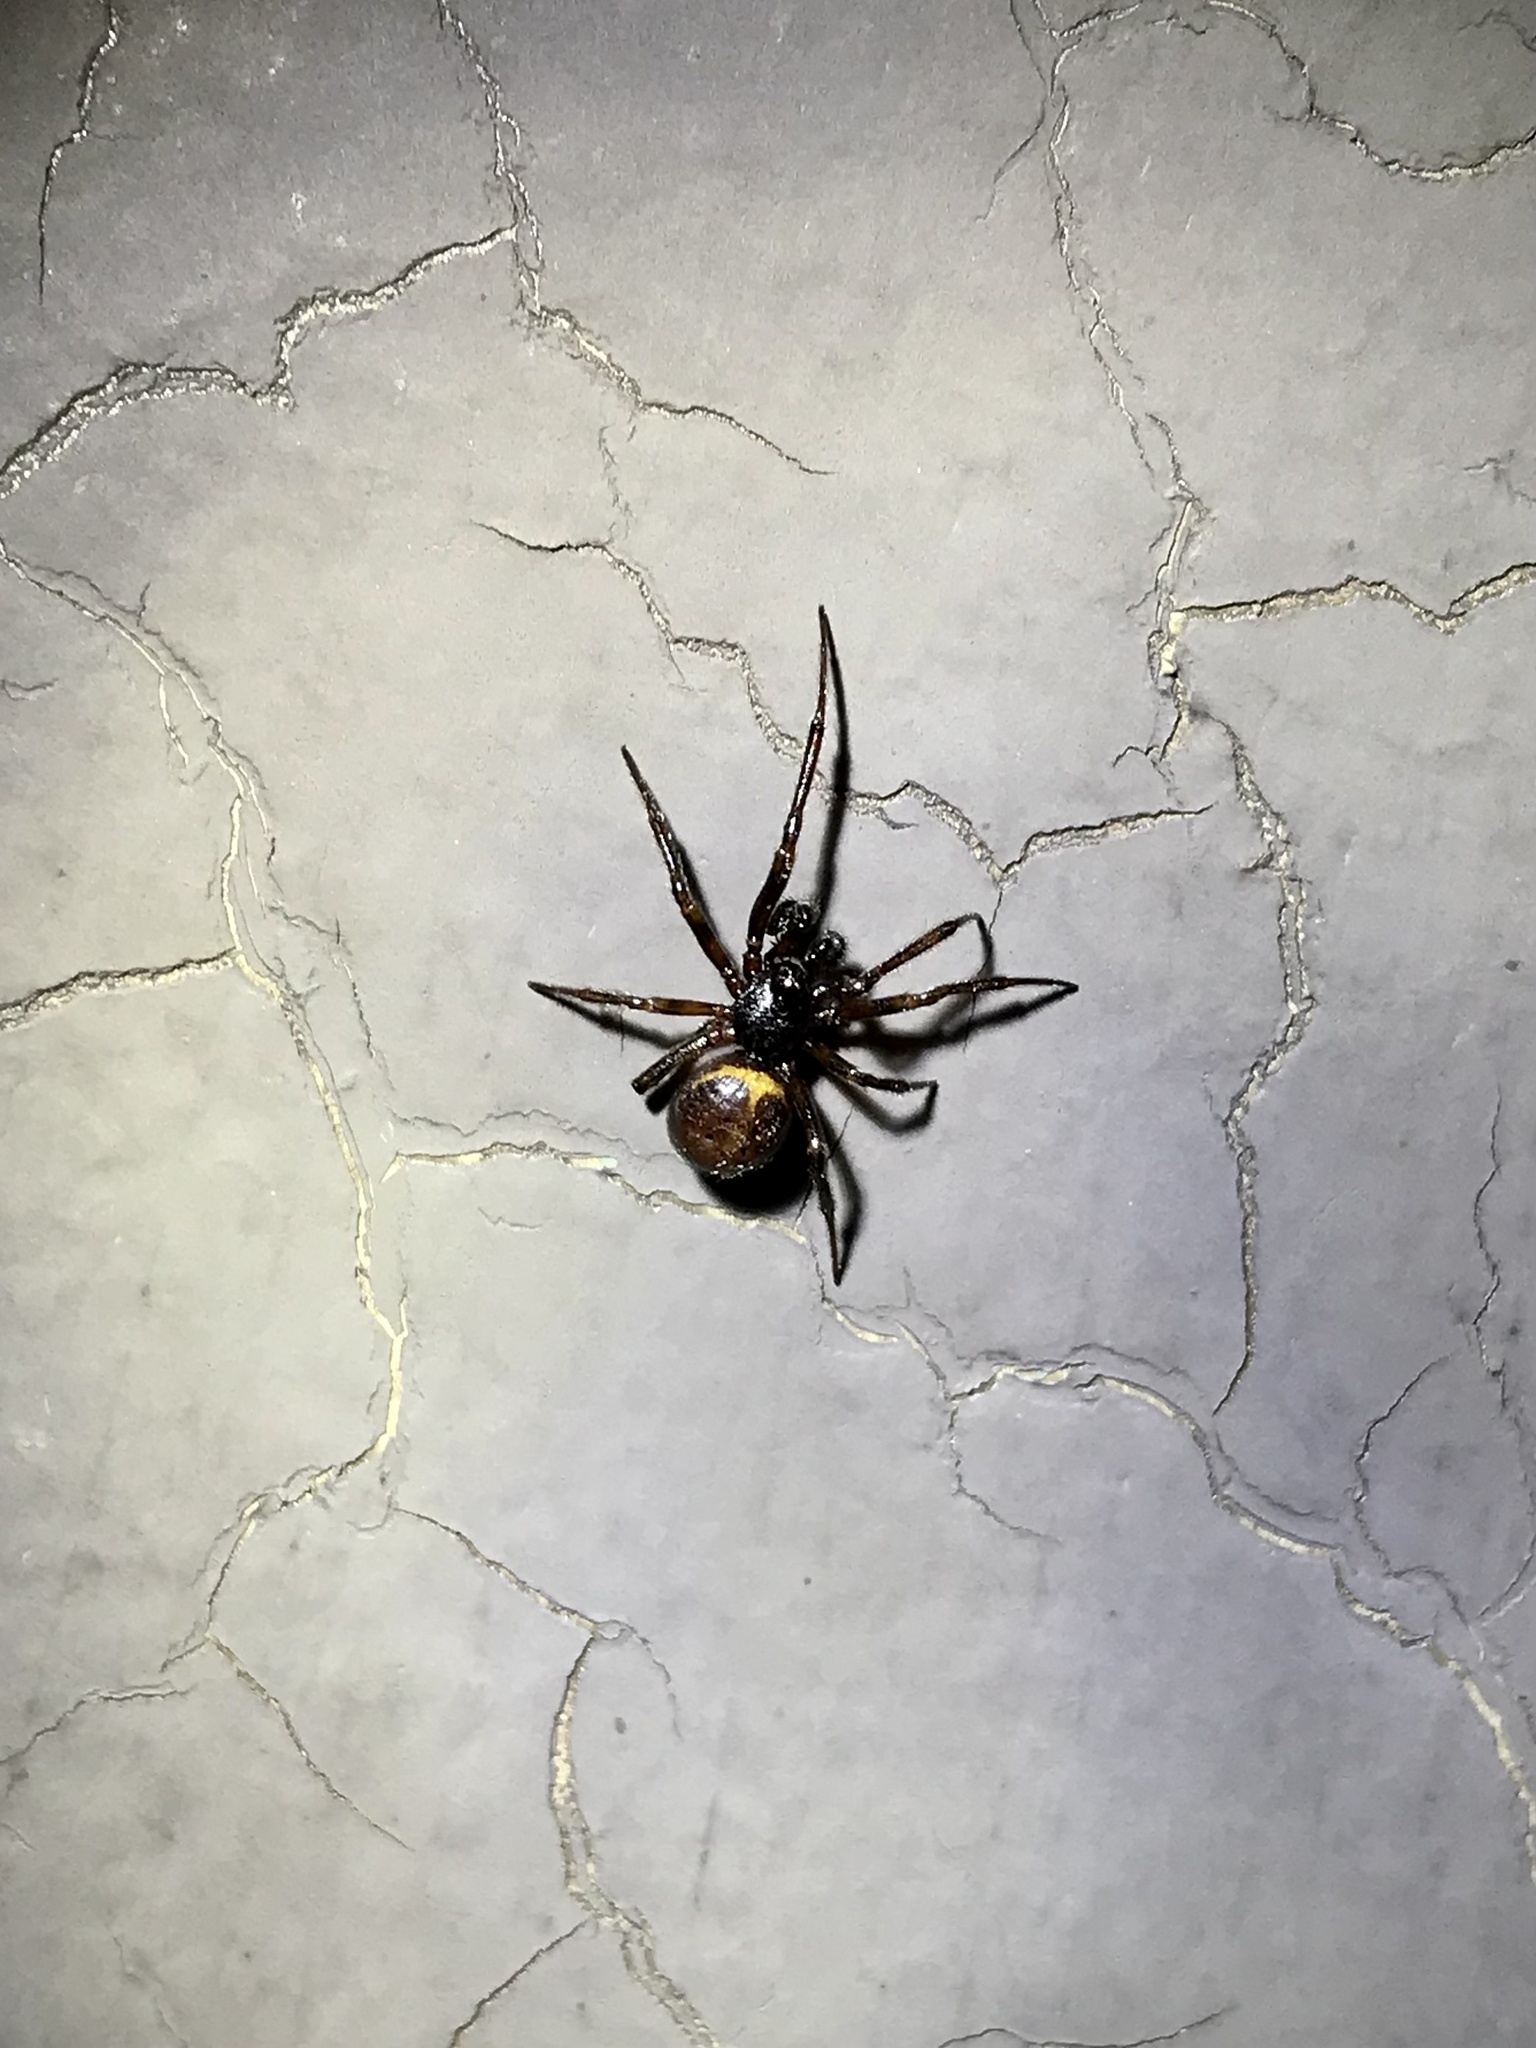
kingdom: Animalia
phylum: Arthropoda
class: Arachnida
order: Araneae
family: Theridiidae
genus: Steatoda
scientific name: Steatoda borealis
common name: Boreal combfoot
